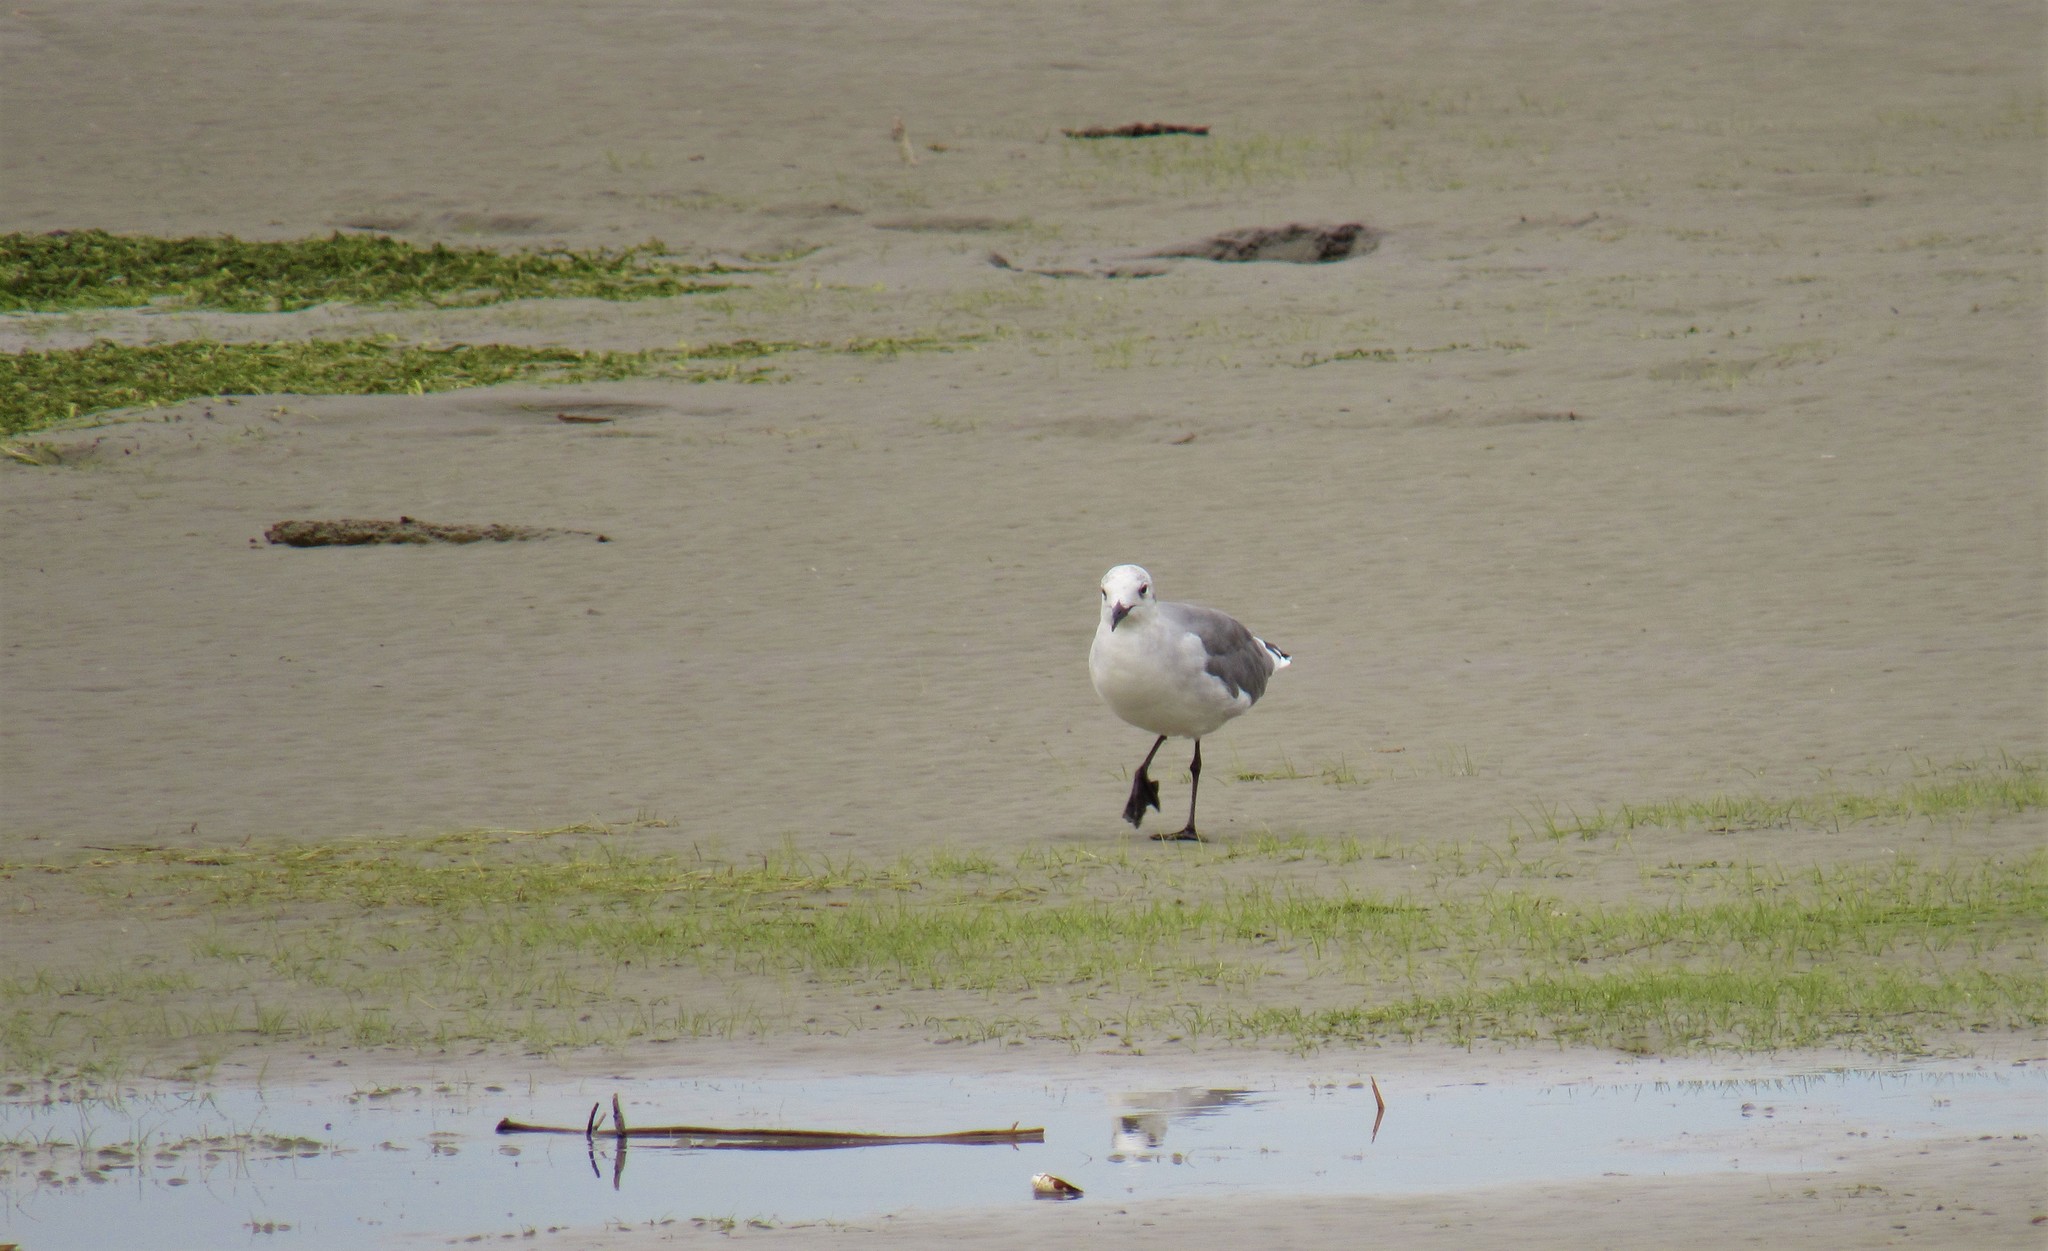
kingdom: Animalia
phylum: Chordata
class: Aves
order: Charadriiformes
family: Laridae
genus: Leucophaeus
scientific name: Leucophaeus atricilla
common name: Laughing gull
